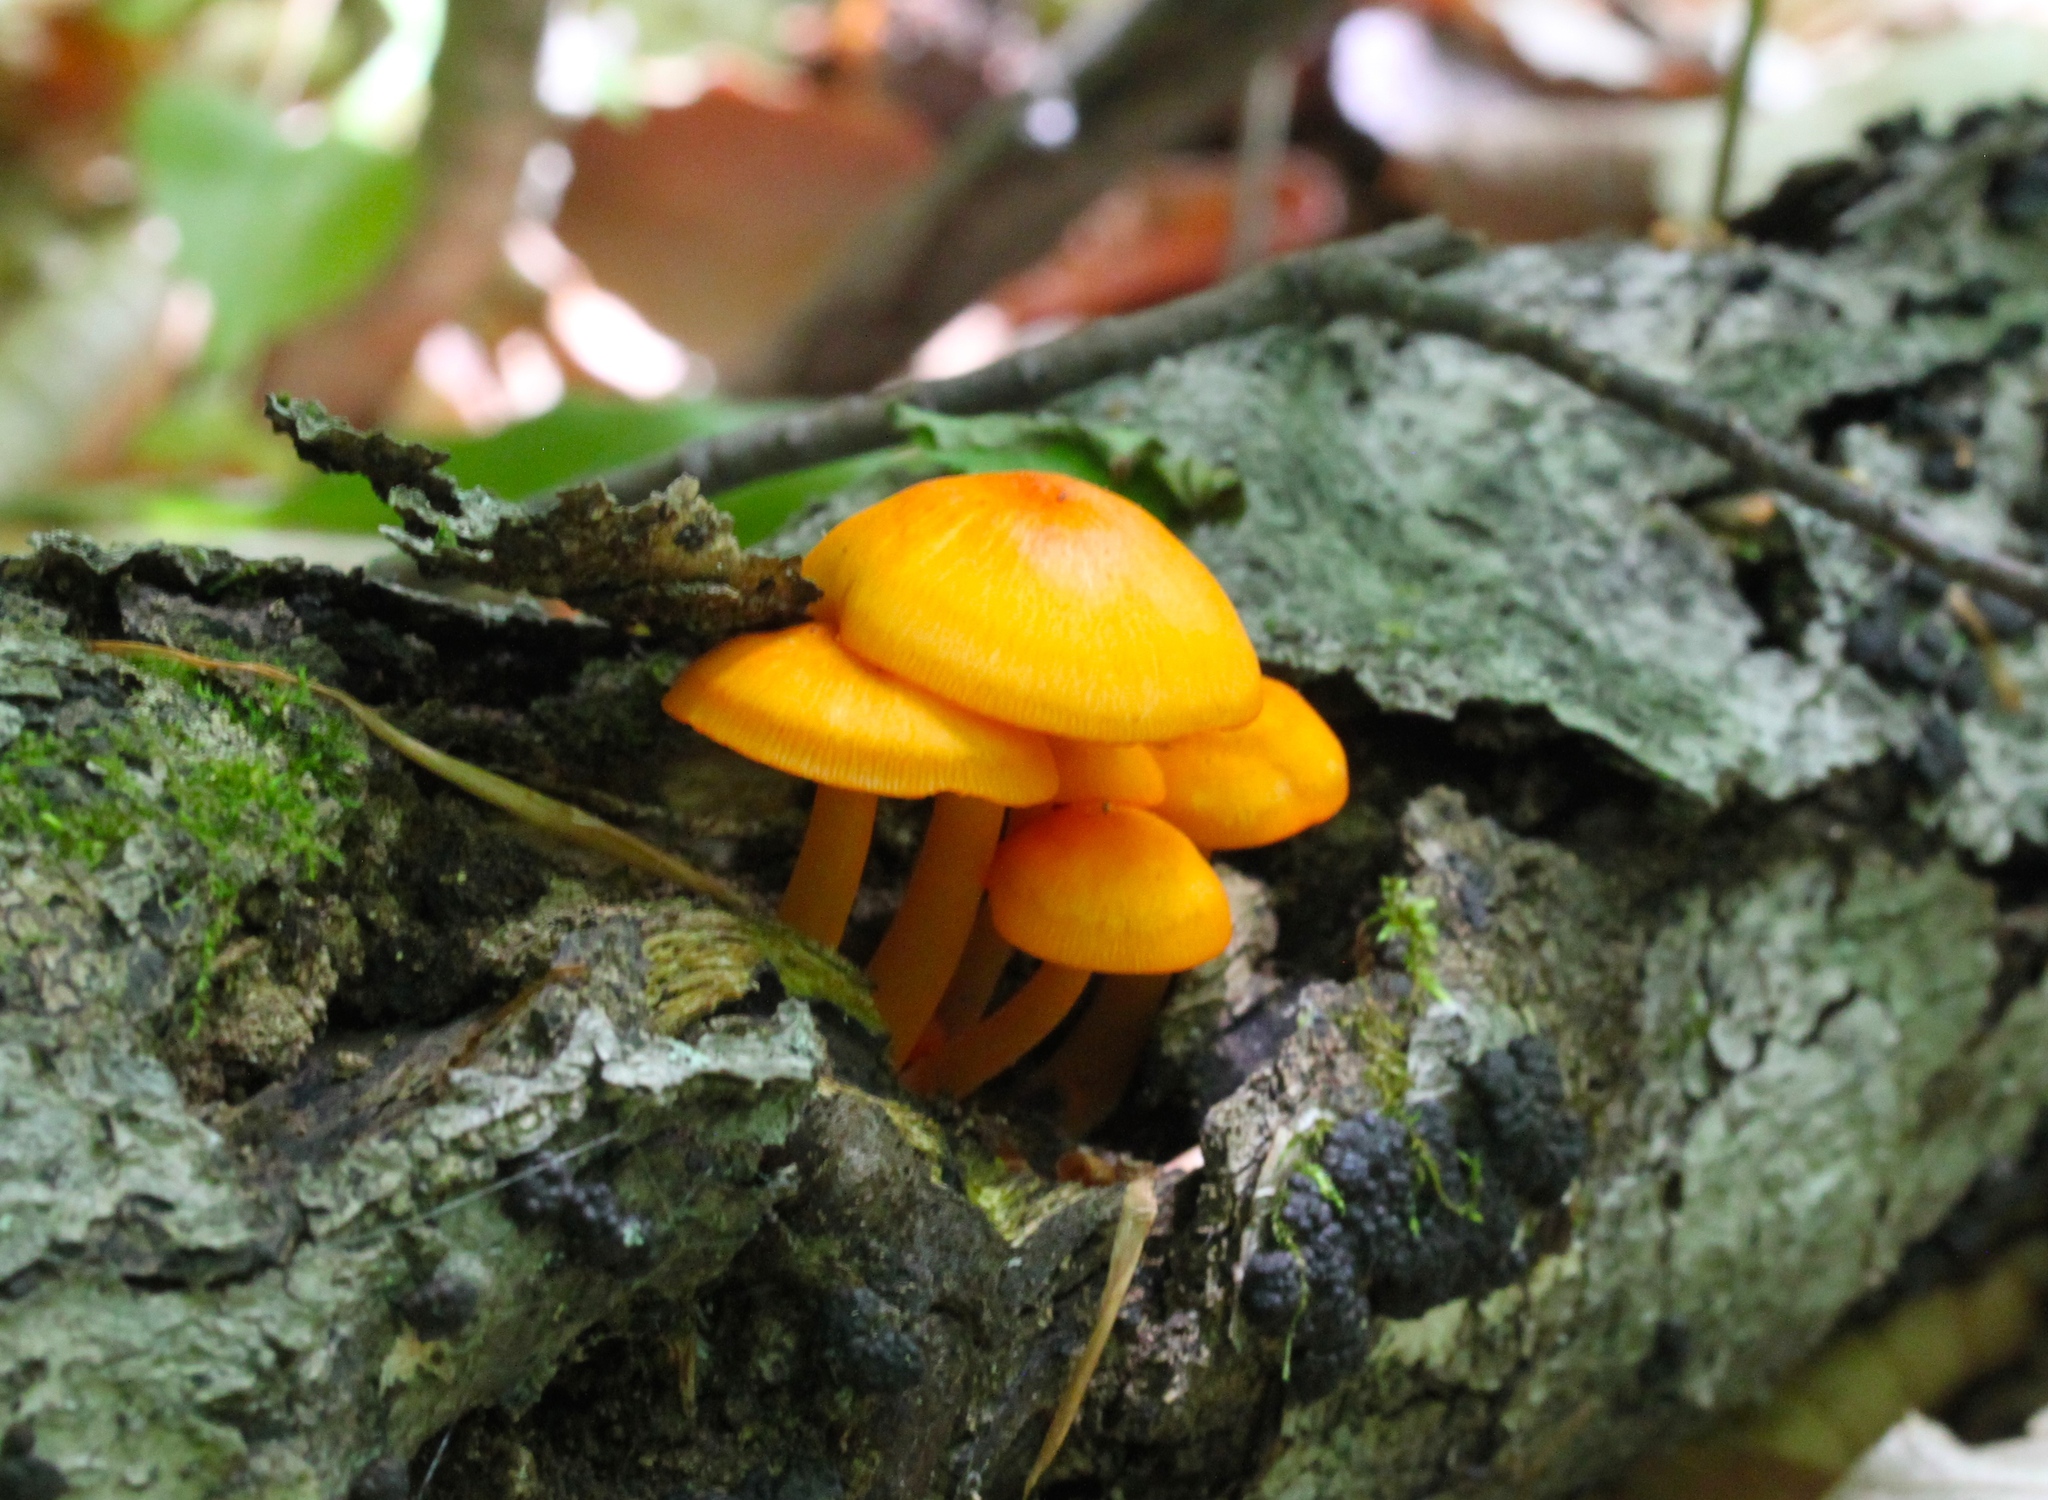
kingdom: Fungi
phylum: Basidiomycota
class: Agaricomycetes
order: Agaricales
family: Mycenaceae
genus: Mycena
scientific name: Mycena leaiana
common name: Orange mycena
